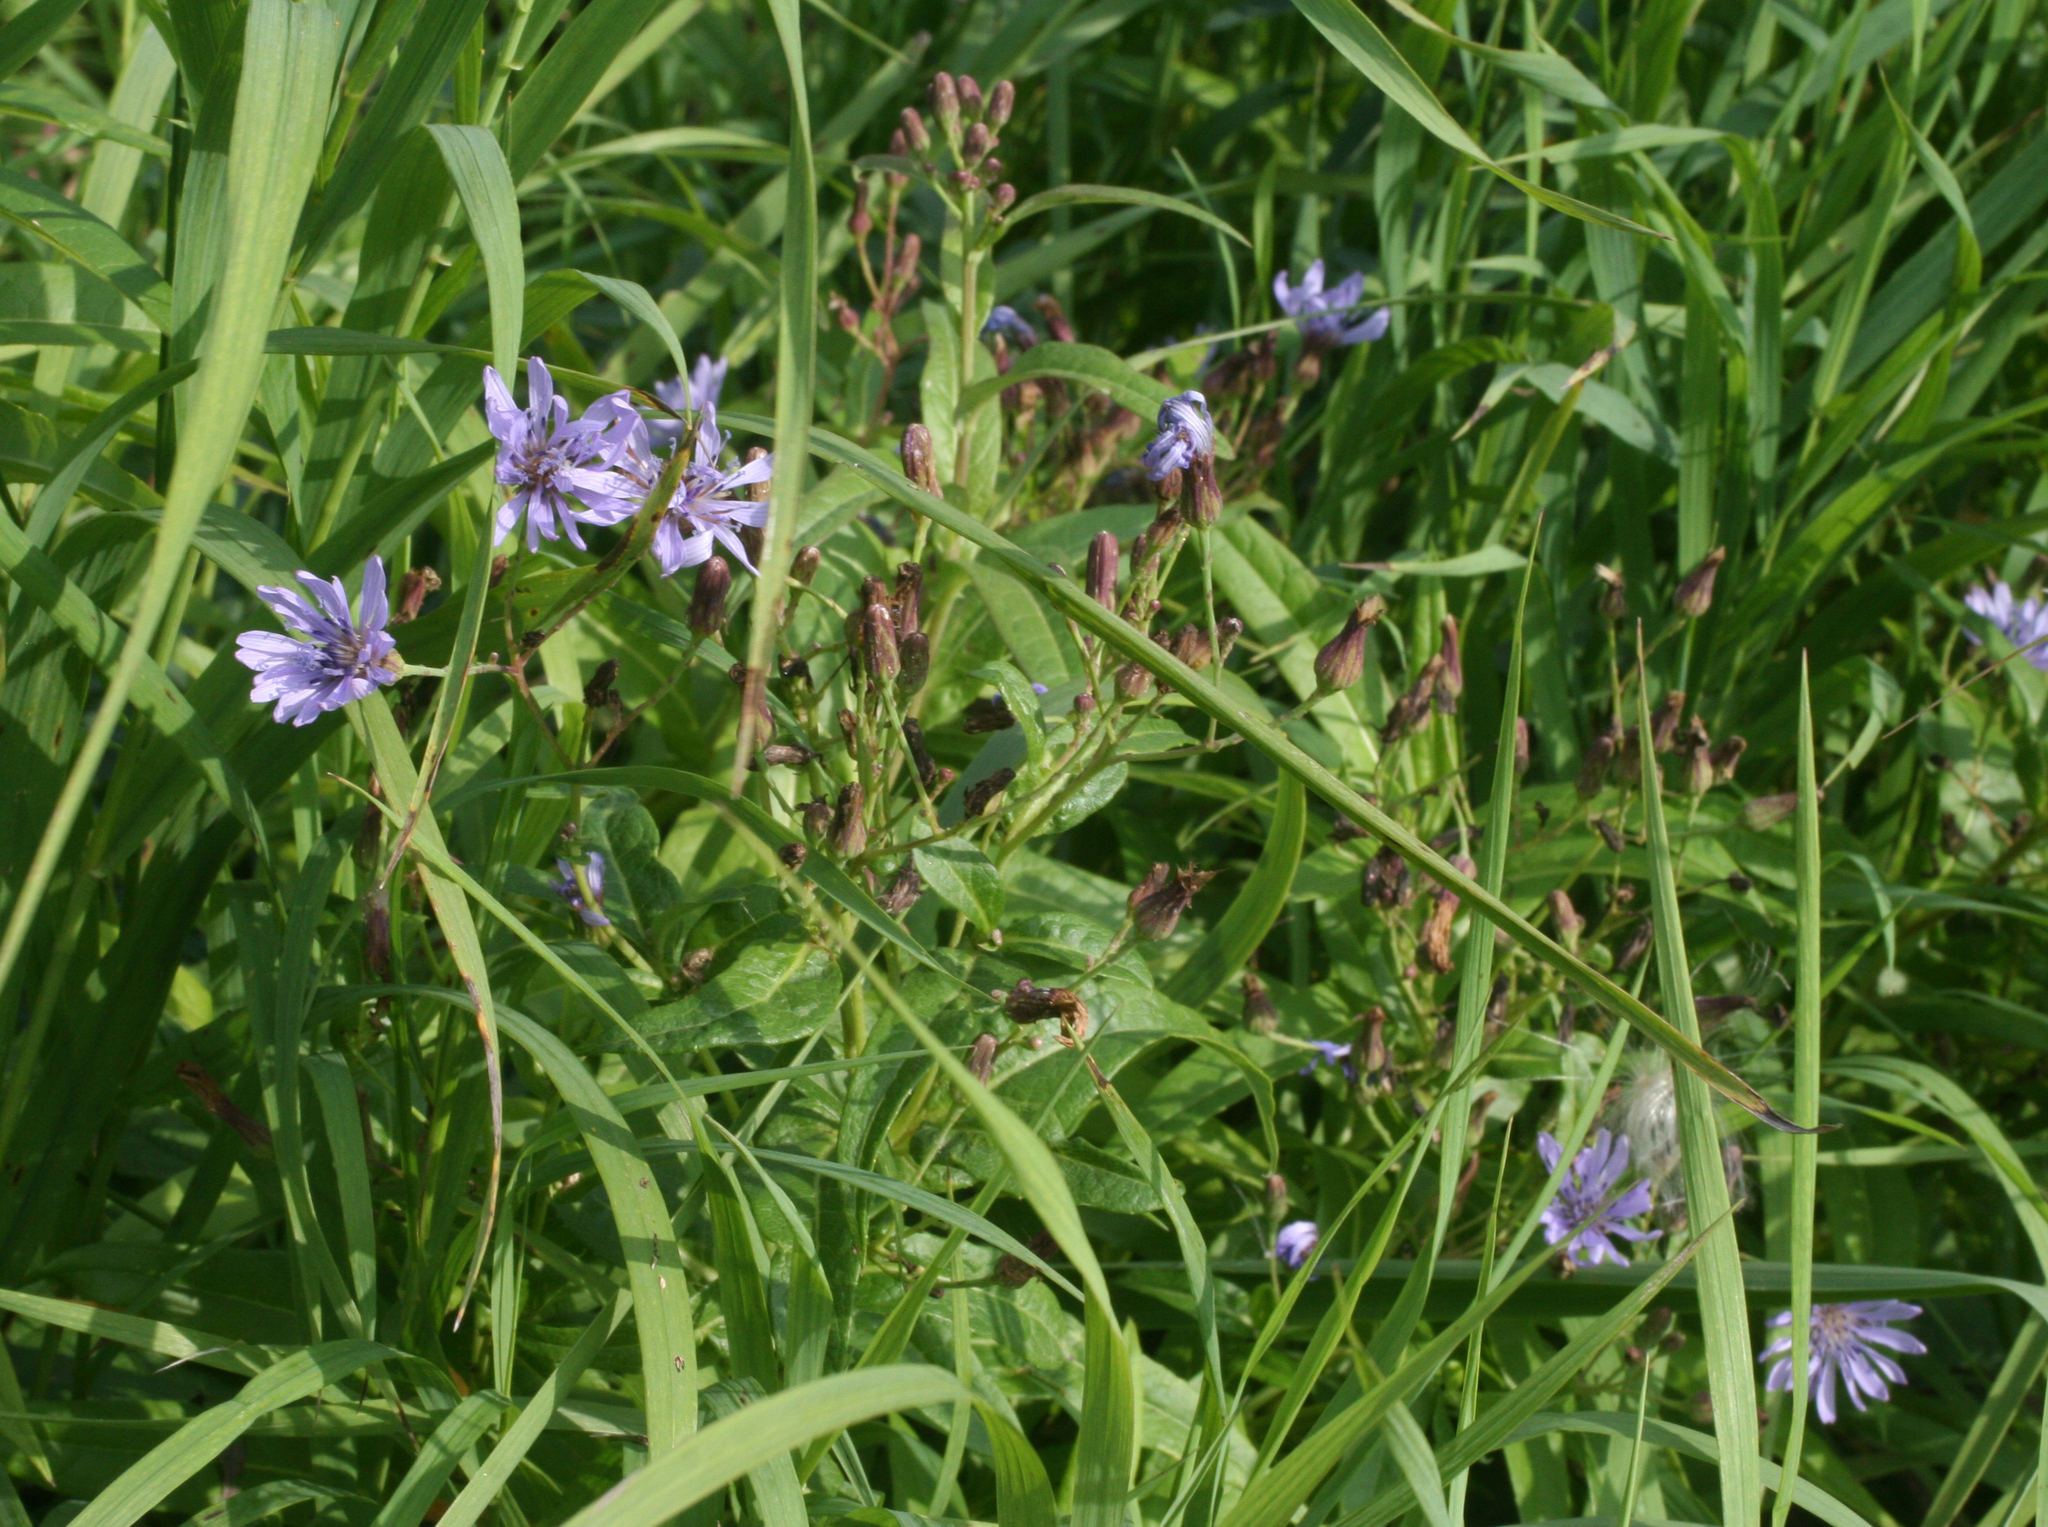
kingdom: Plantae
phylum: Tracheophyta
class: Magnoliopsida
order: Asterales
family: Asteraceae
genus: Lactuca
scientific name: Lactuca tatarica
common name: Blue lettuce
